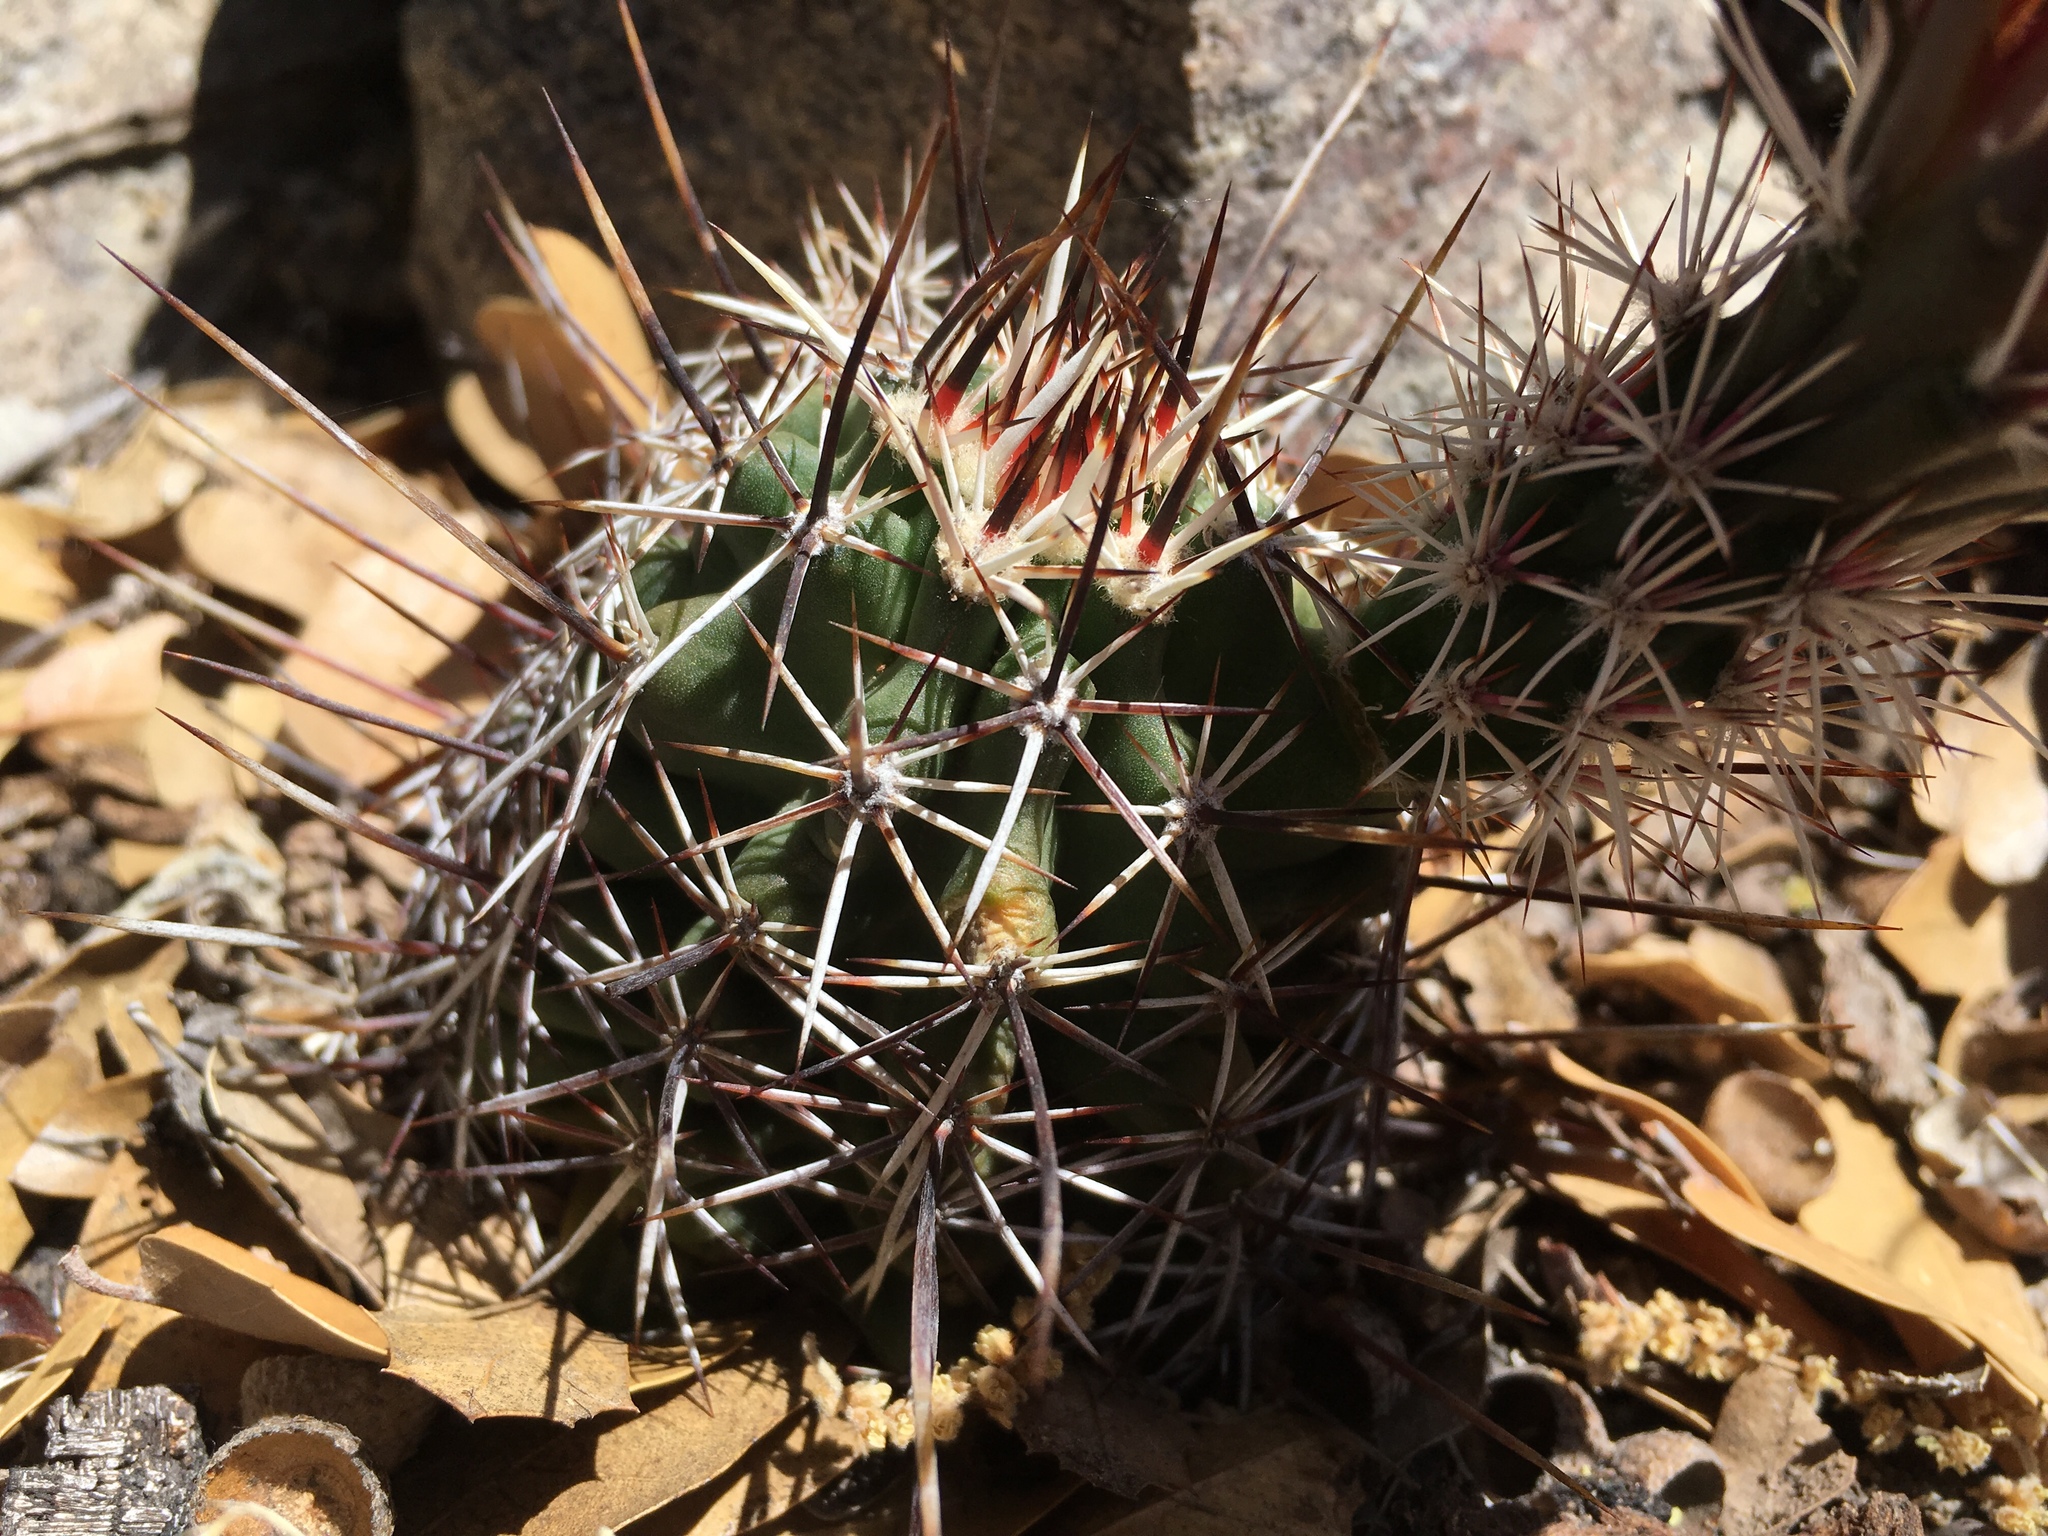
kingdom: Plantae
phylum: Tracheophyta
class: Magnoliopsida
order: Caryophyllales
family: Cactaceae
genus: Echinocereus
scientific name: Echinocereus fendleri
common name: Fendler's hedgehog cactus
